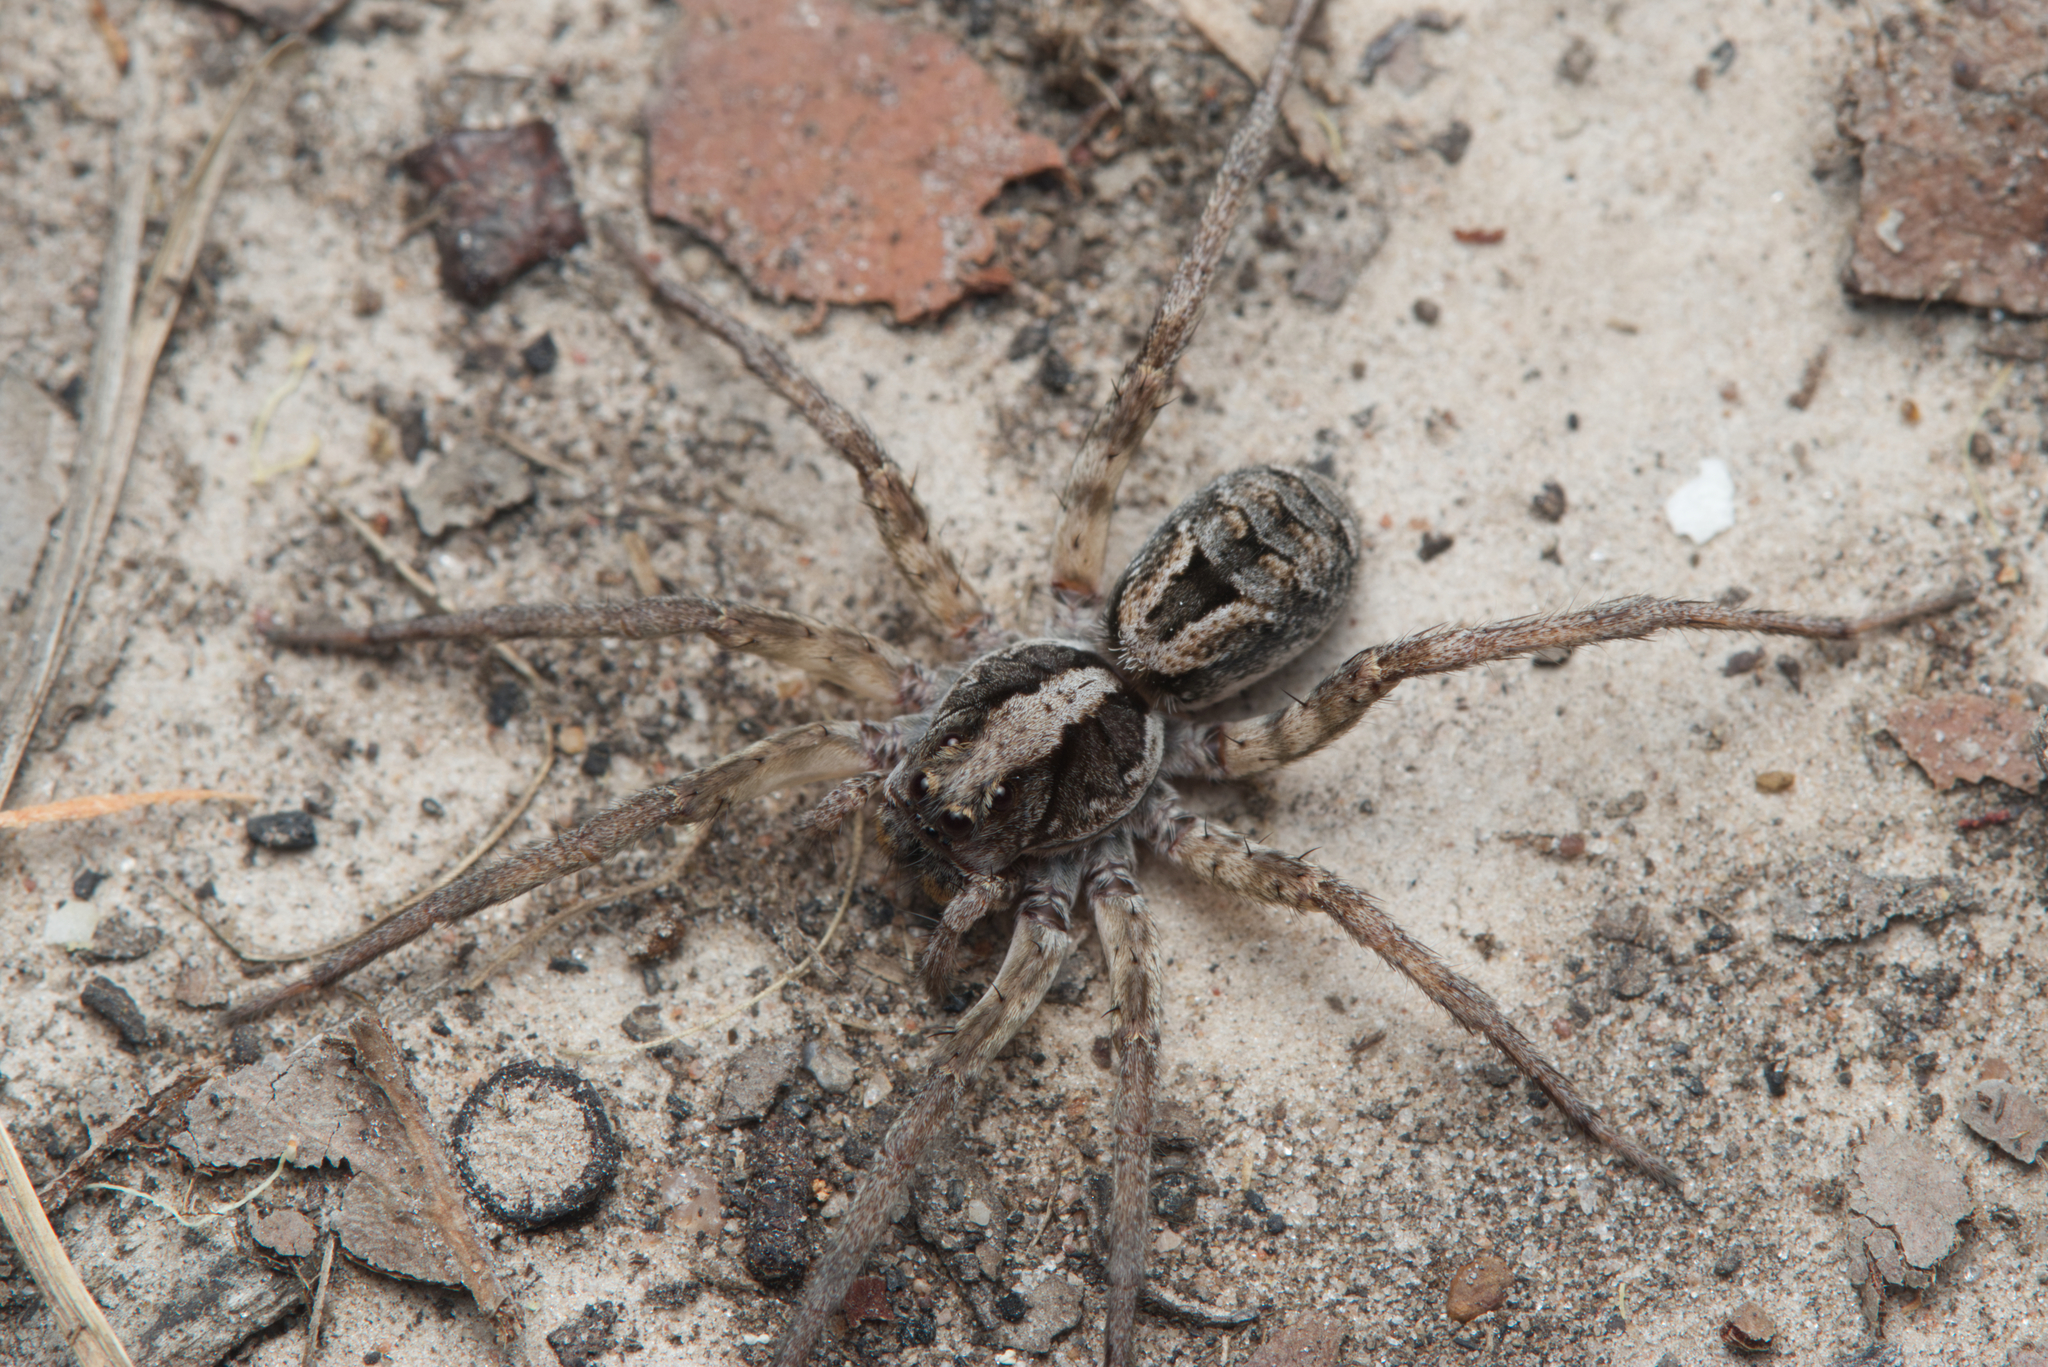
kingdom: Animalia
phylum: Arthropoda
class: Arachnida
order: Araneae
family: Lycosidae
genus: Venator
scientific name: Venator spenceri
